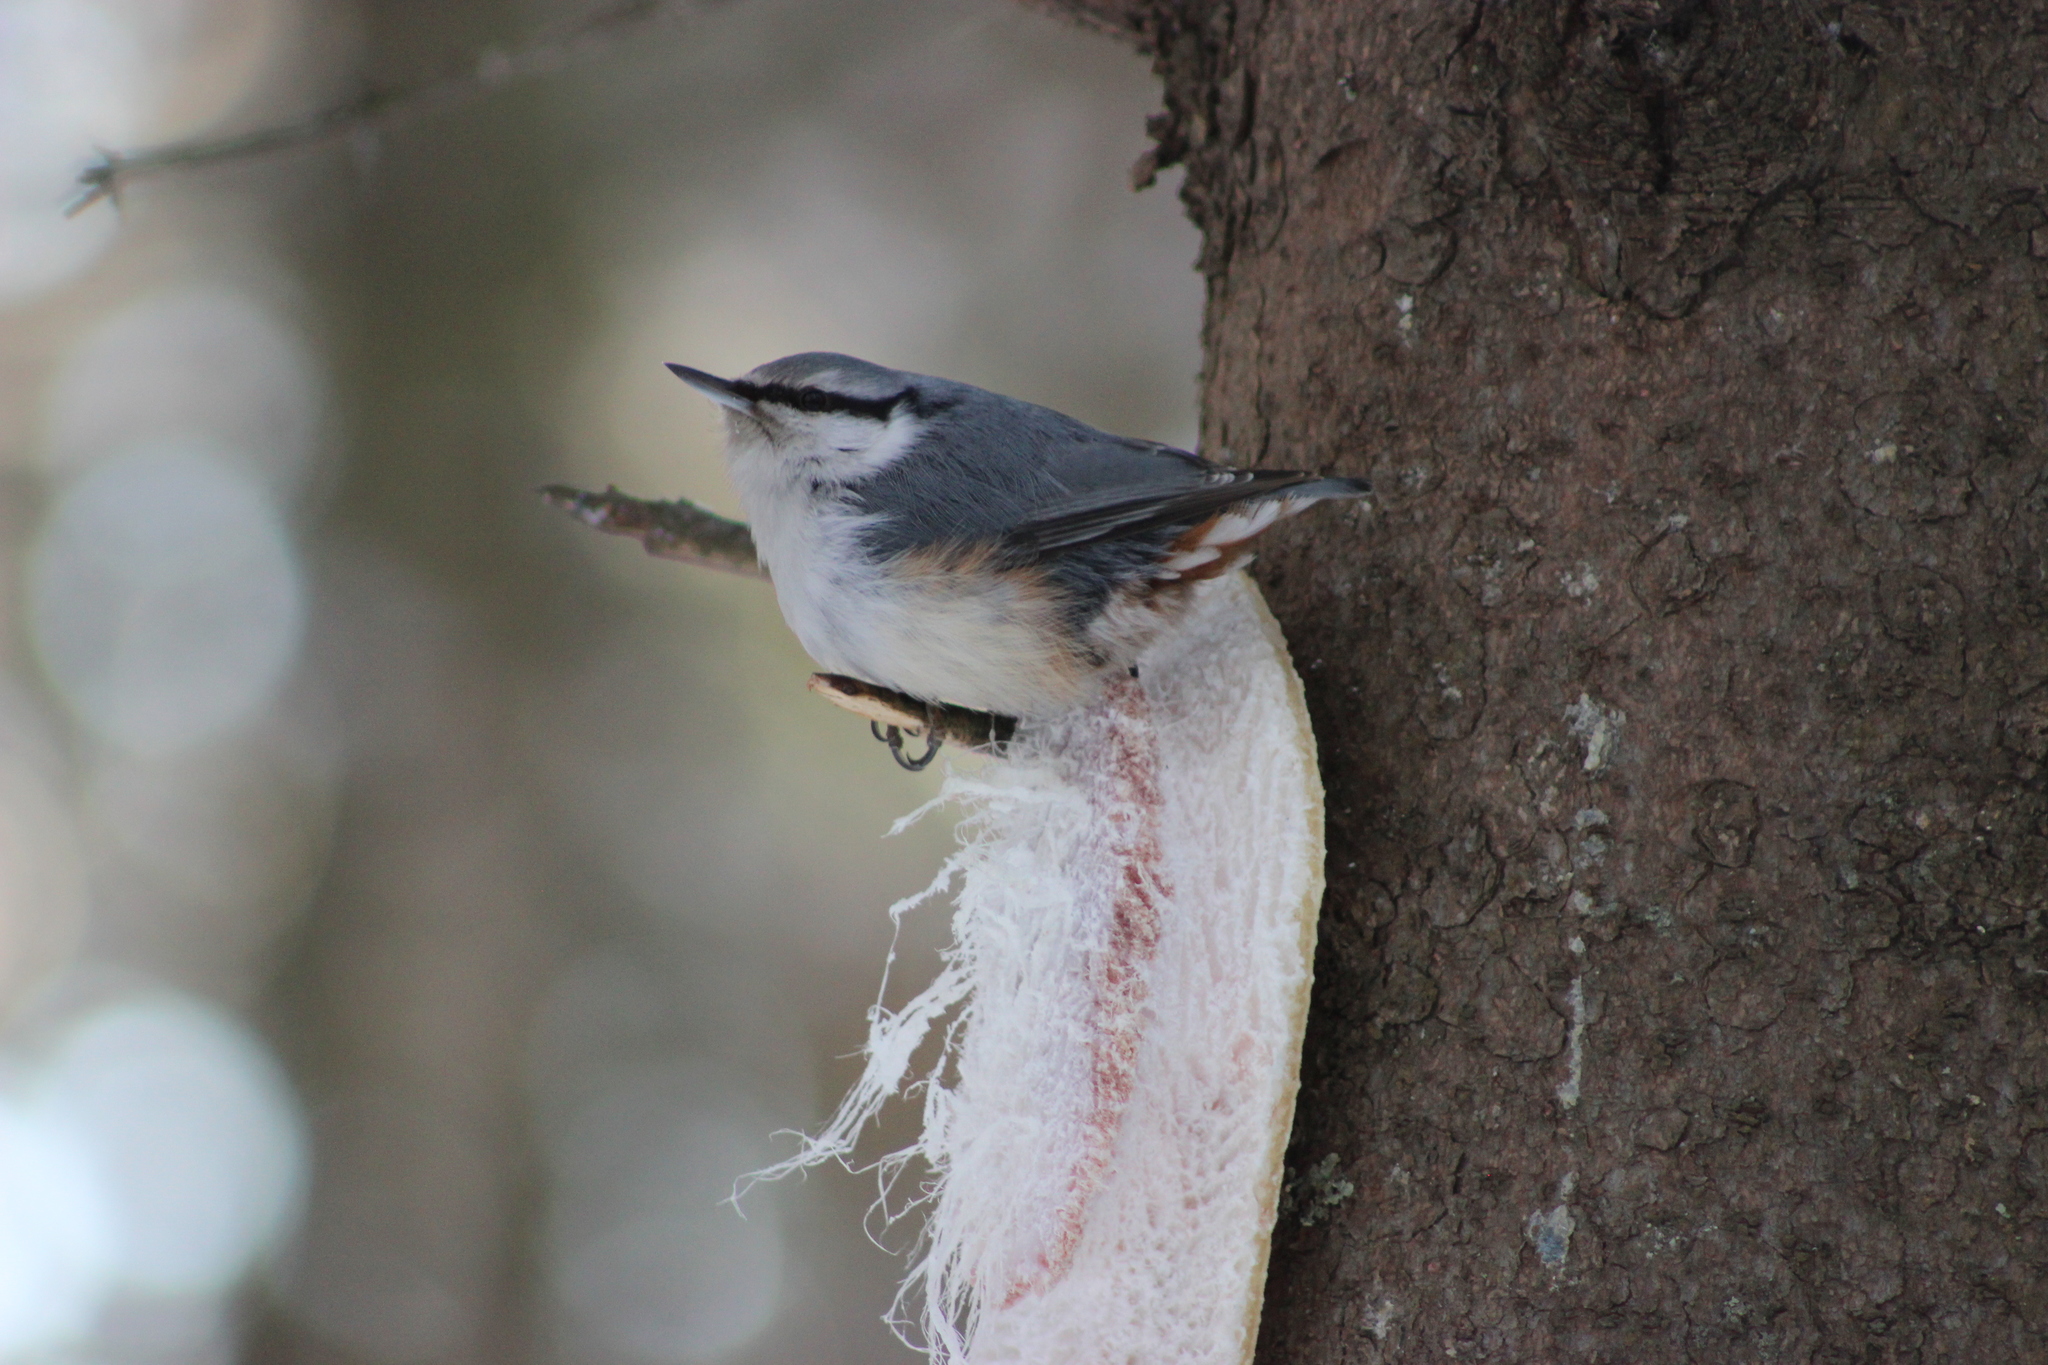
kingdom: Animalia
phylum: Chordata
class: Aves
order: Passeriformes
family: Sittidae
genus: Sitta
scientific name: Sitta europaea
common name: Eurasian nuthatch
